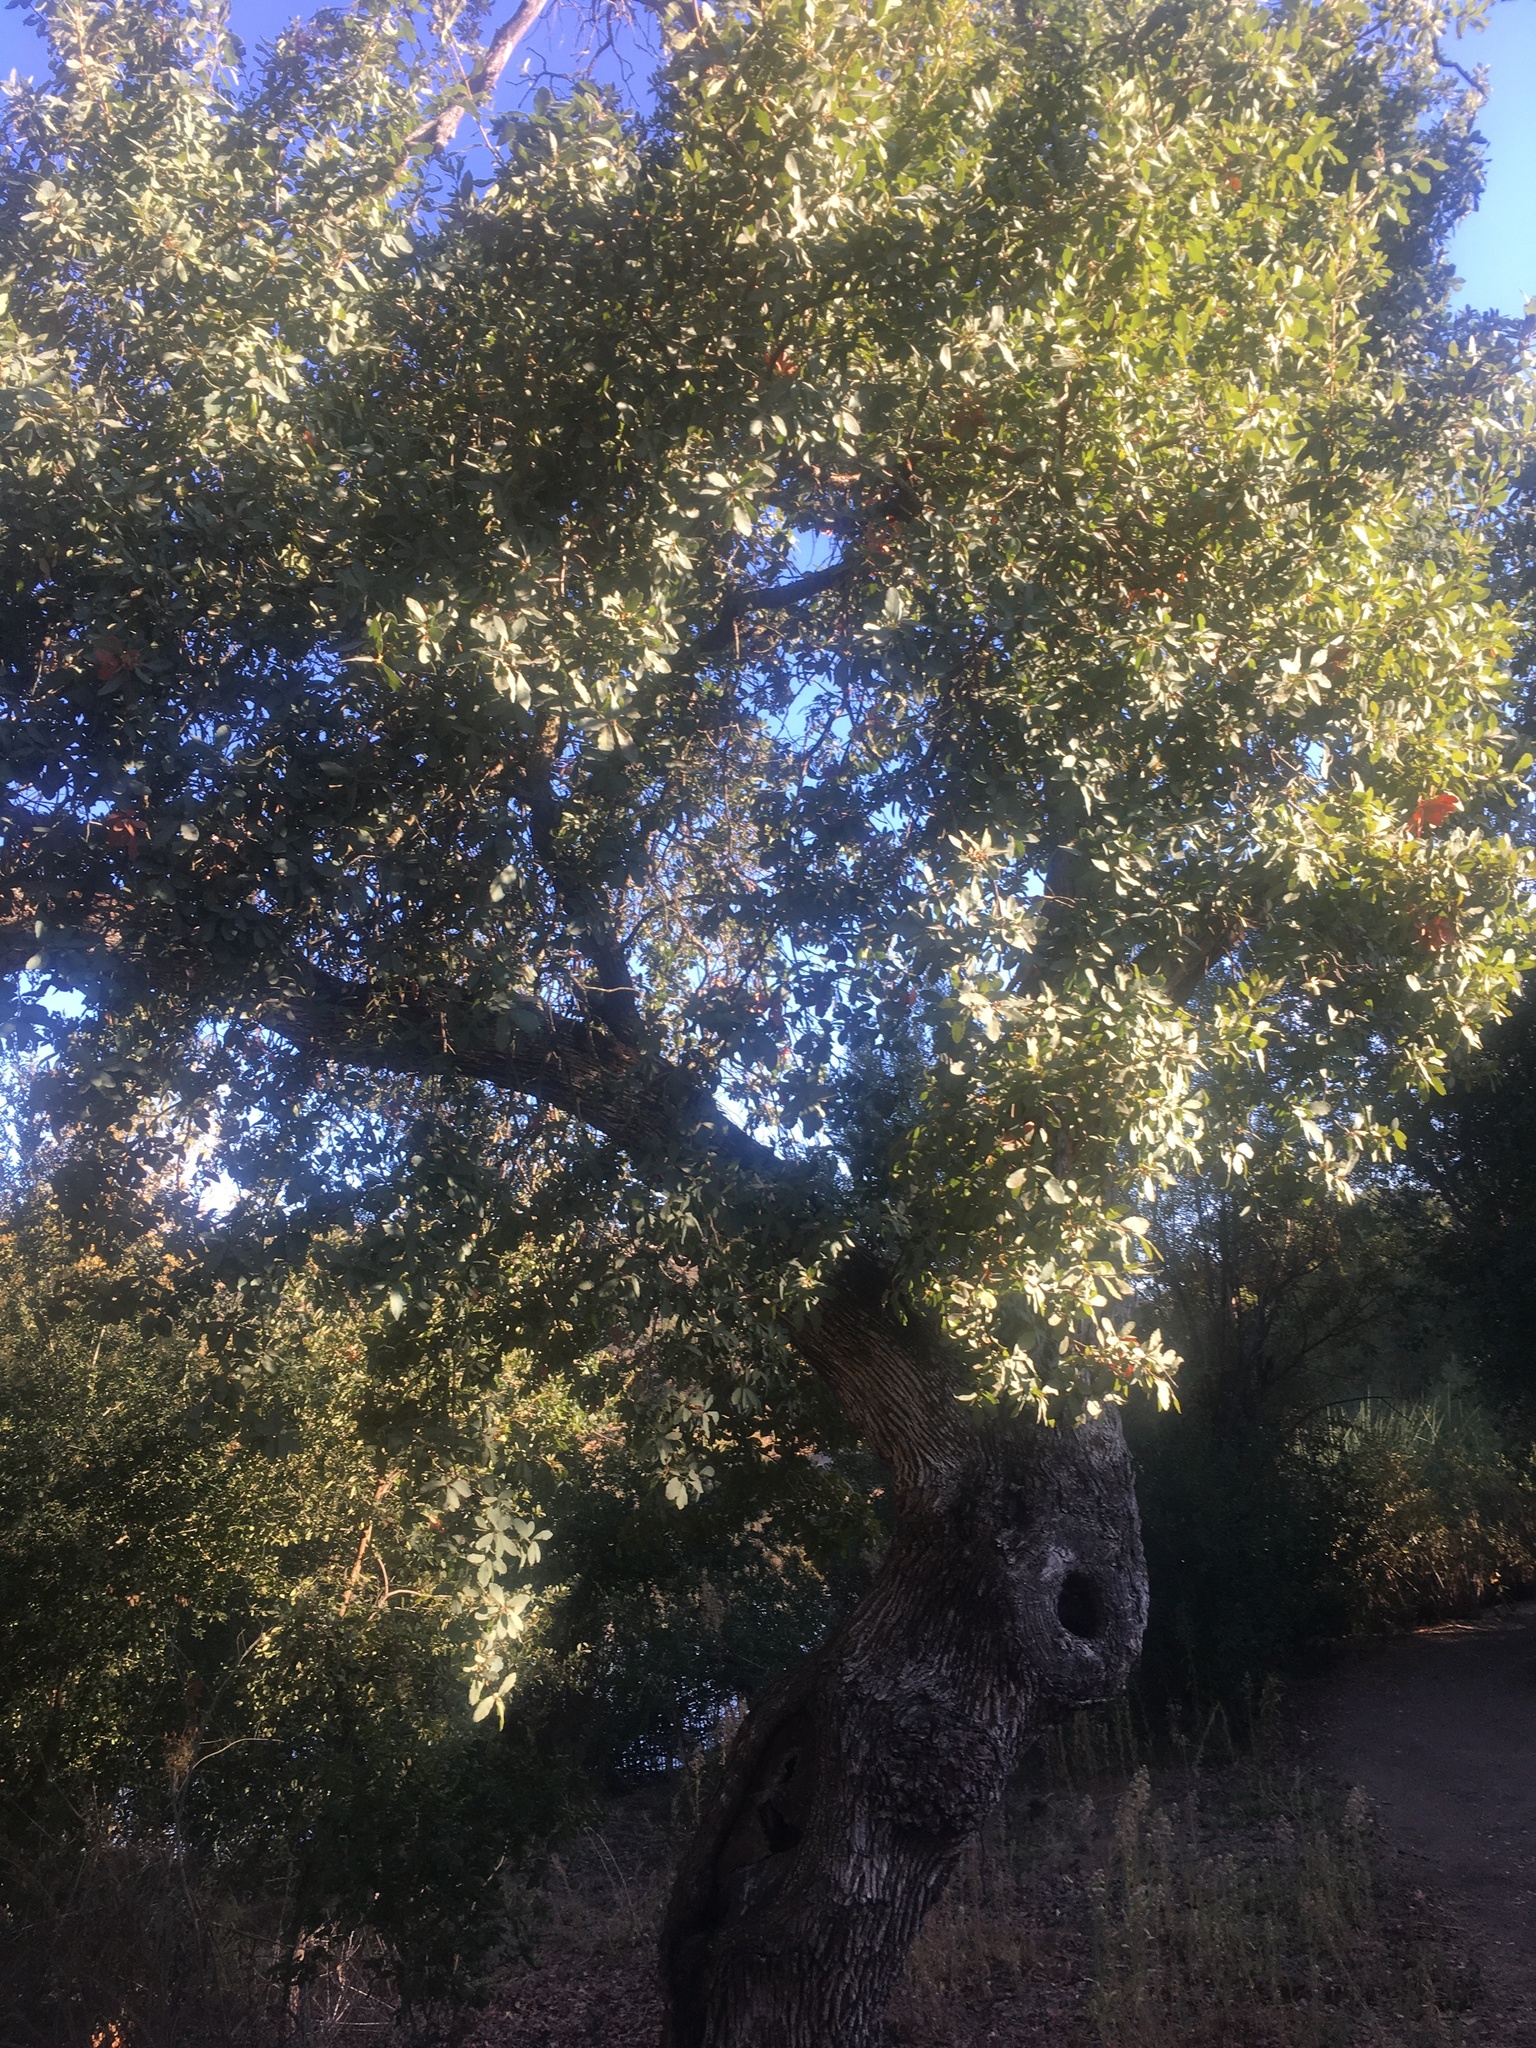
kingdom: Plantae
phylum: Tracheophyta
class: Magnoliopsida
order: Fagales
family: Fagaceae
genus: Quercus
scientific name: Quercus engelmannii
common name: Engelmann oak
